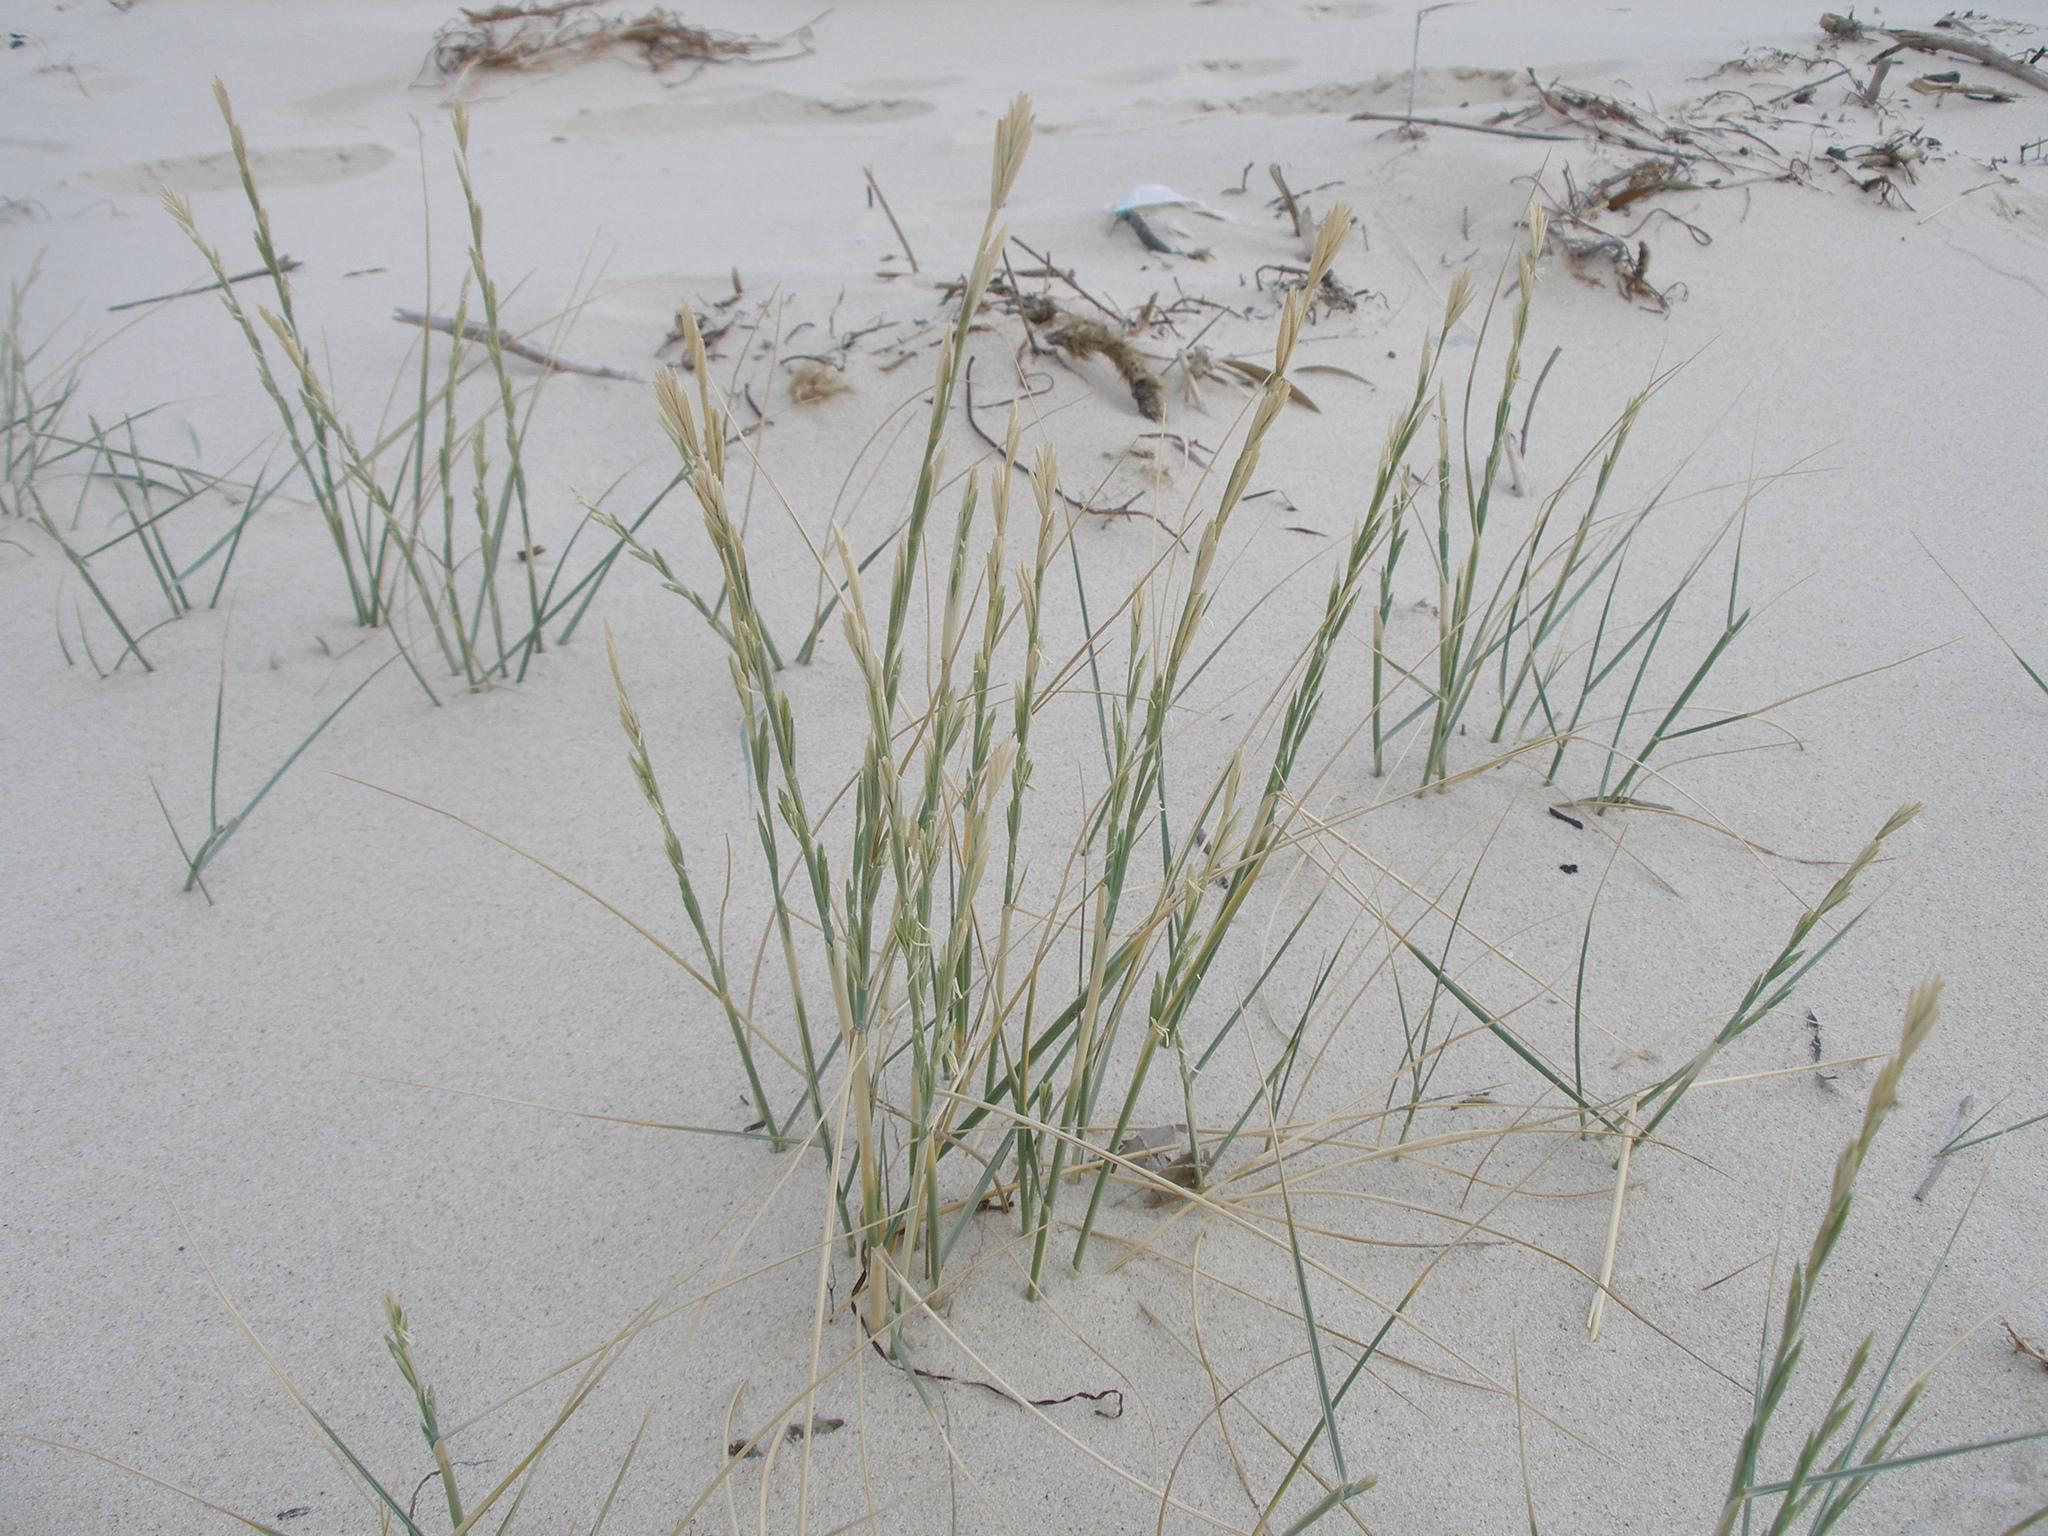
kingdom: Plantae
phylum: Tracheophyta
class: Liliopsida
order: Poales
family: Poaceae
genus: Thinopyrum
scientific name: Thinopyrum junceum
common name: Russian wheatgrass
